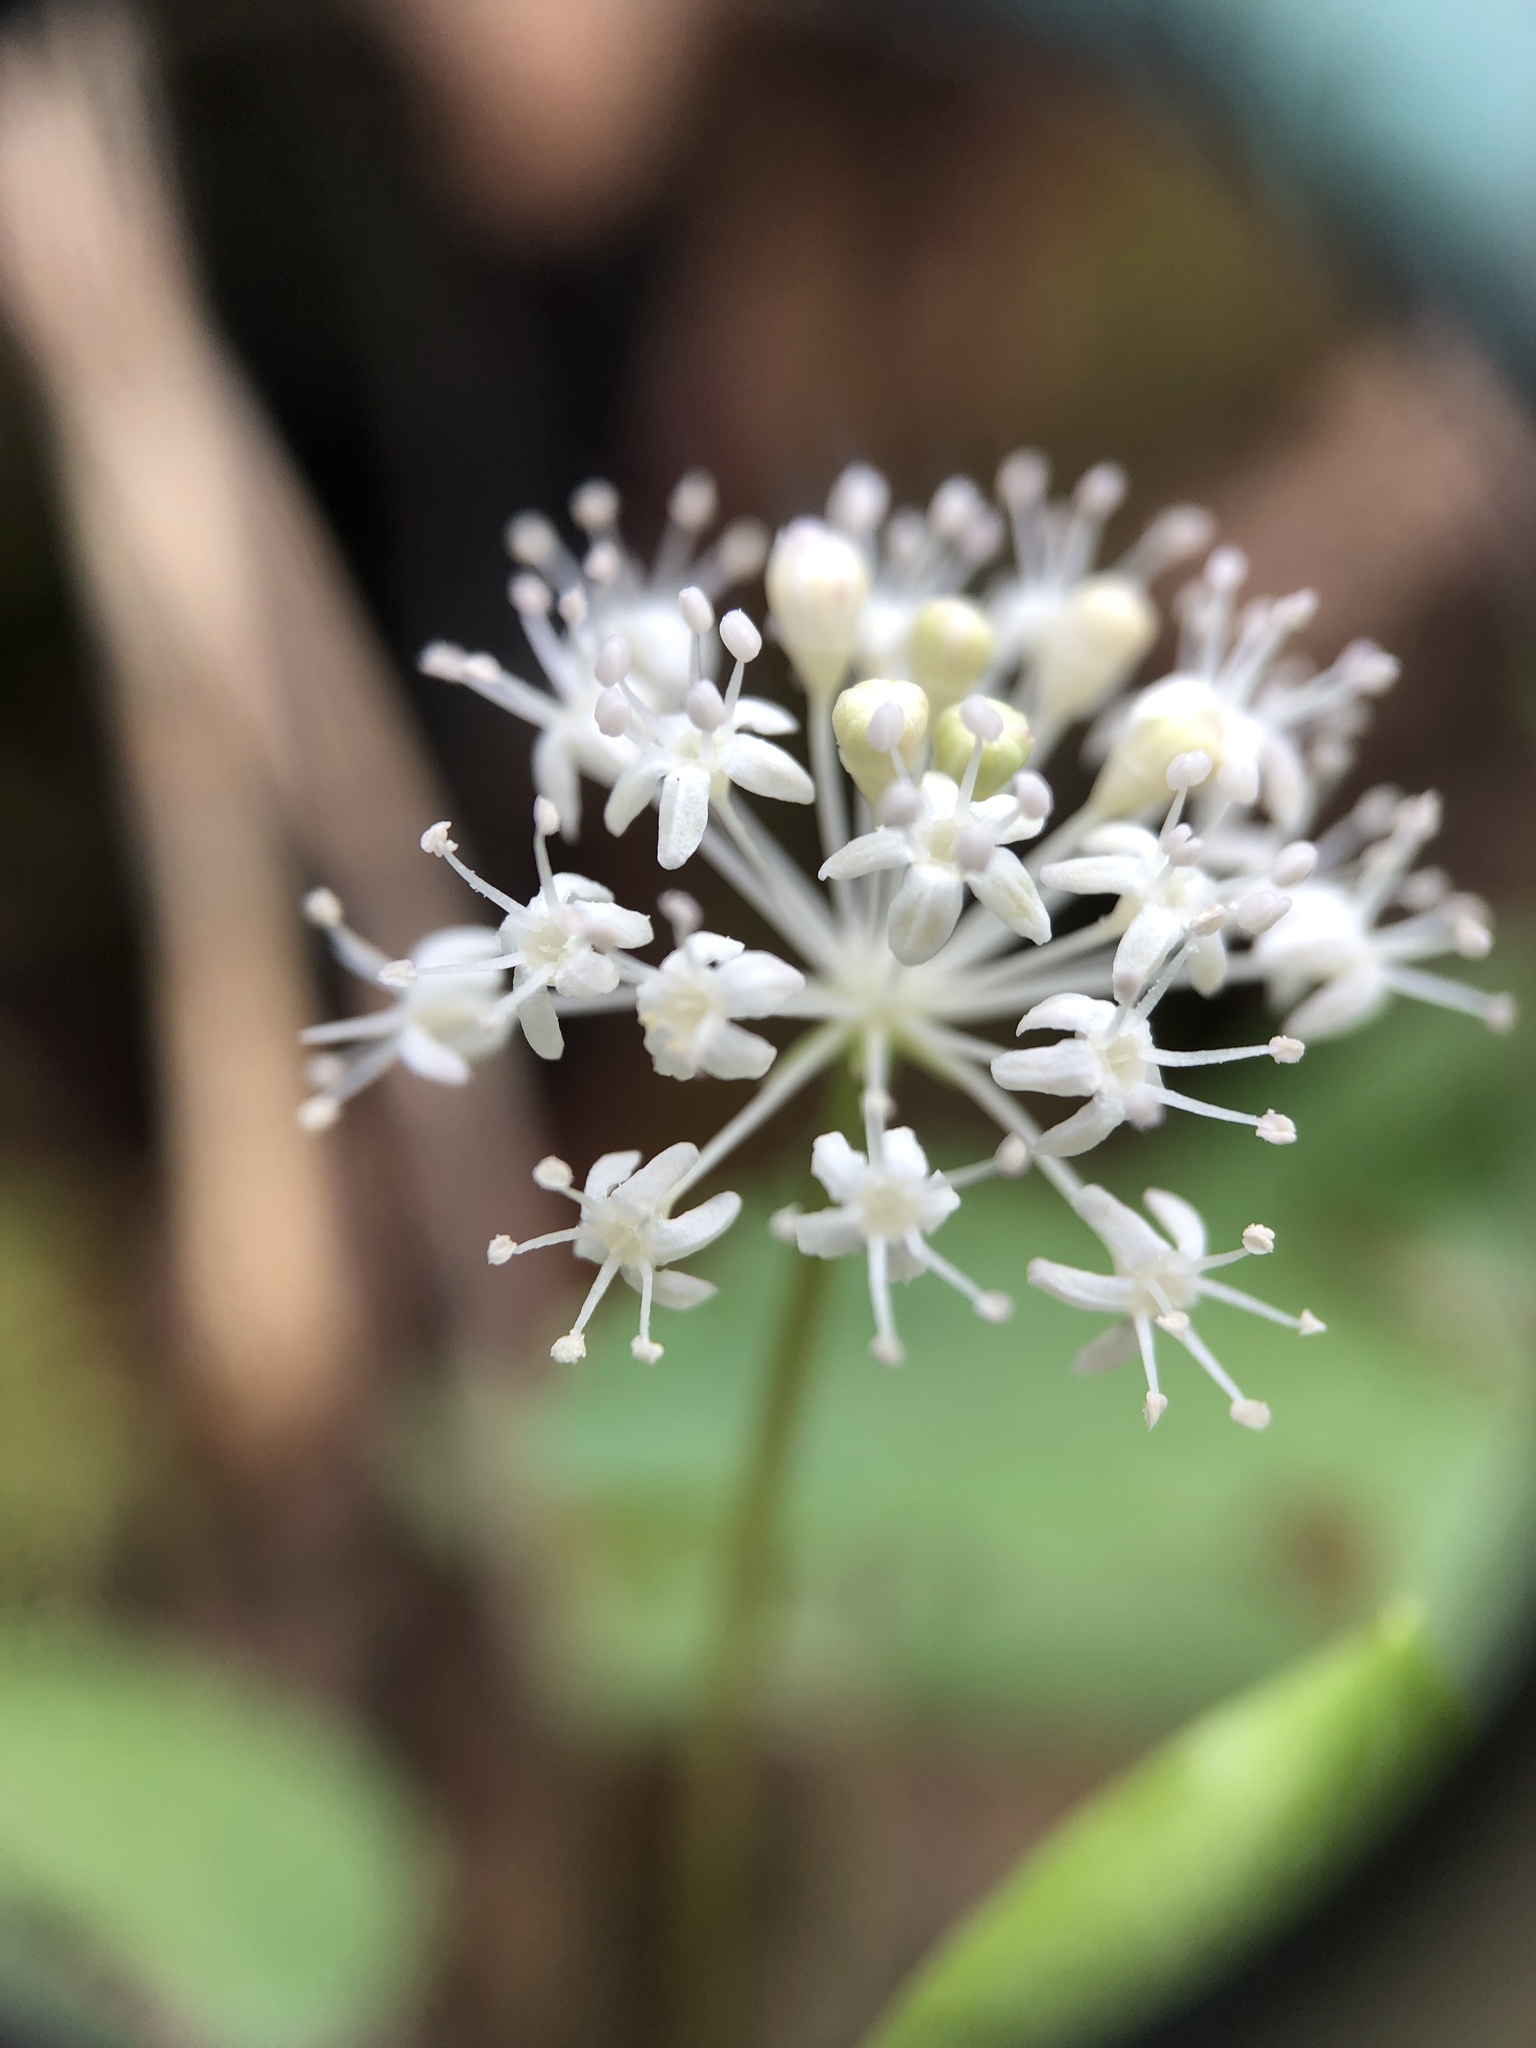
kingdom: Plantae
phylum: Tracheophyta
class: Magnoliopsida
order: Apiales
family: Araliaceae
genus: Panax
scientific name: Panax trifolius
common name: Dwarf ginseng
